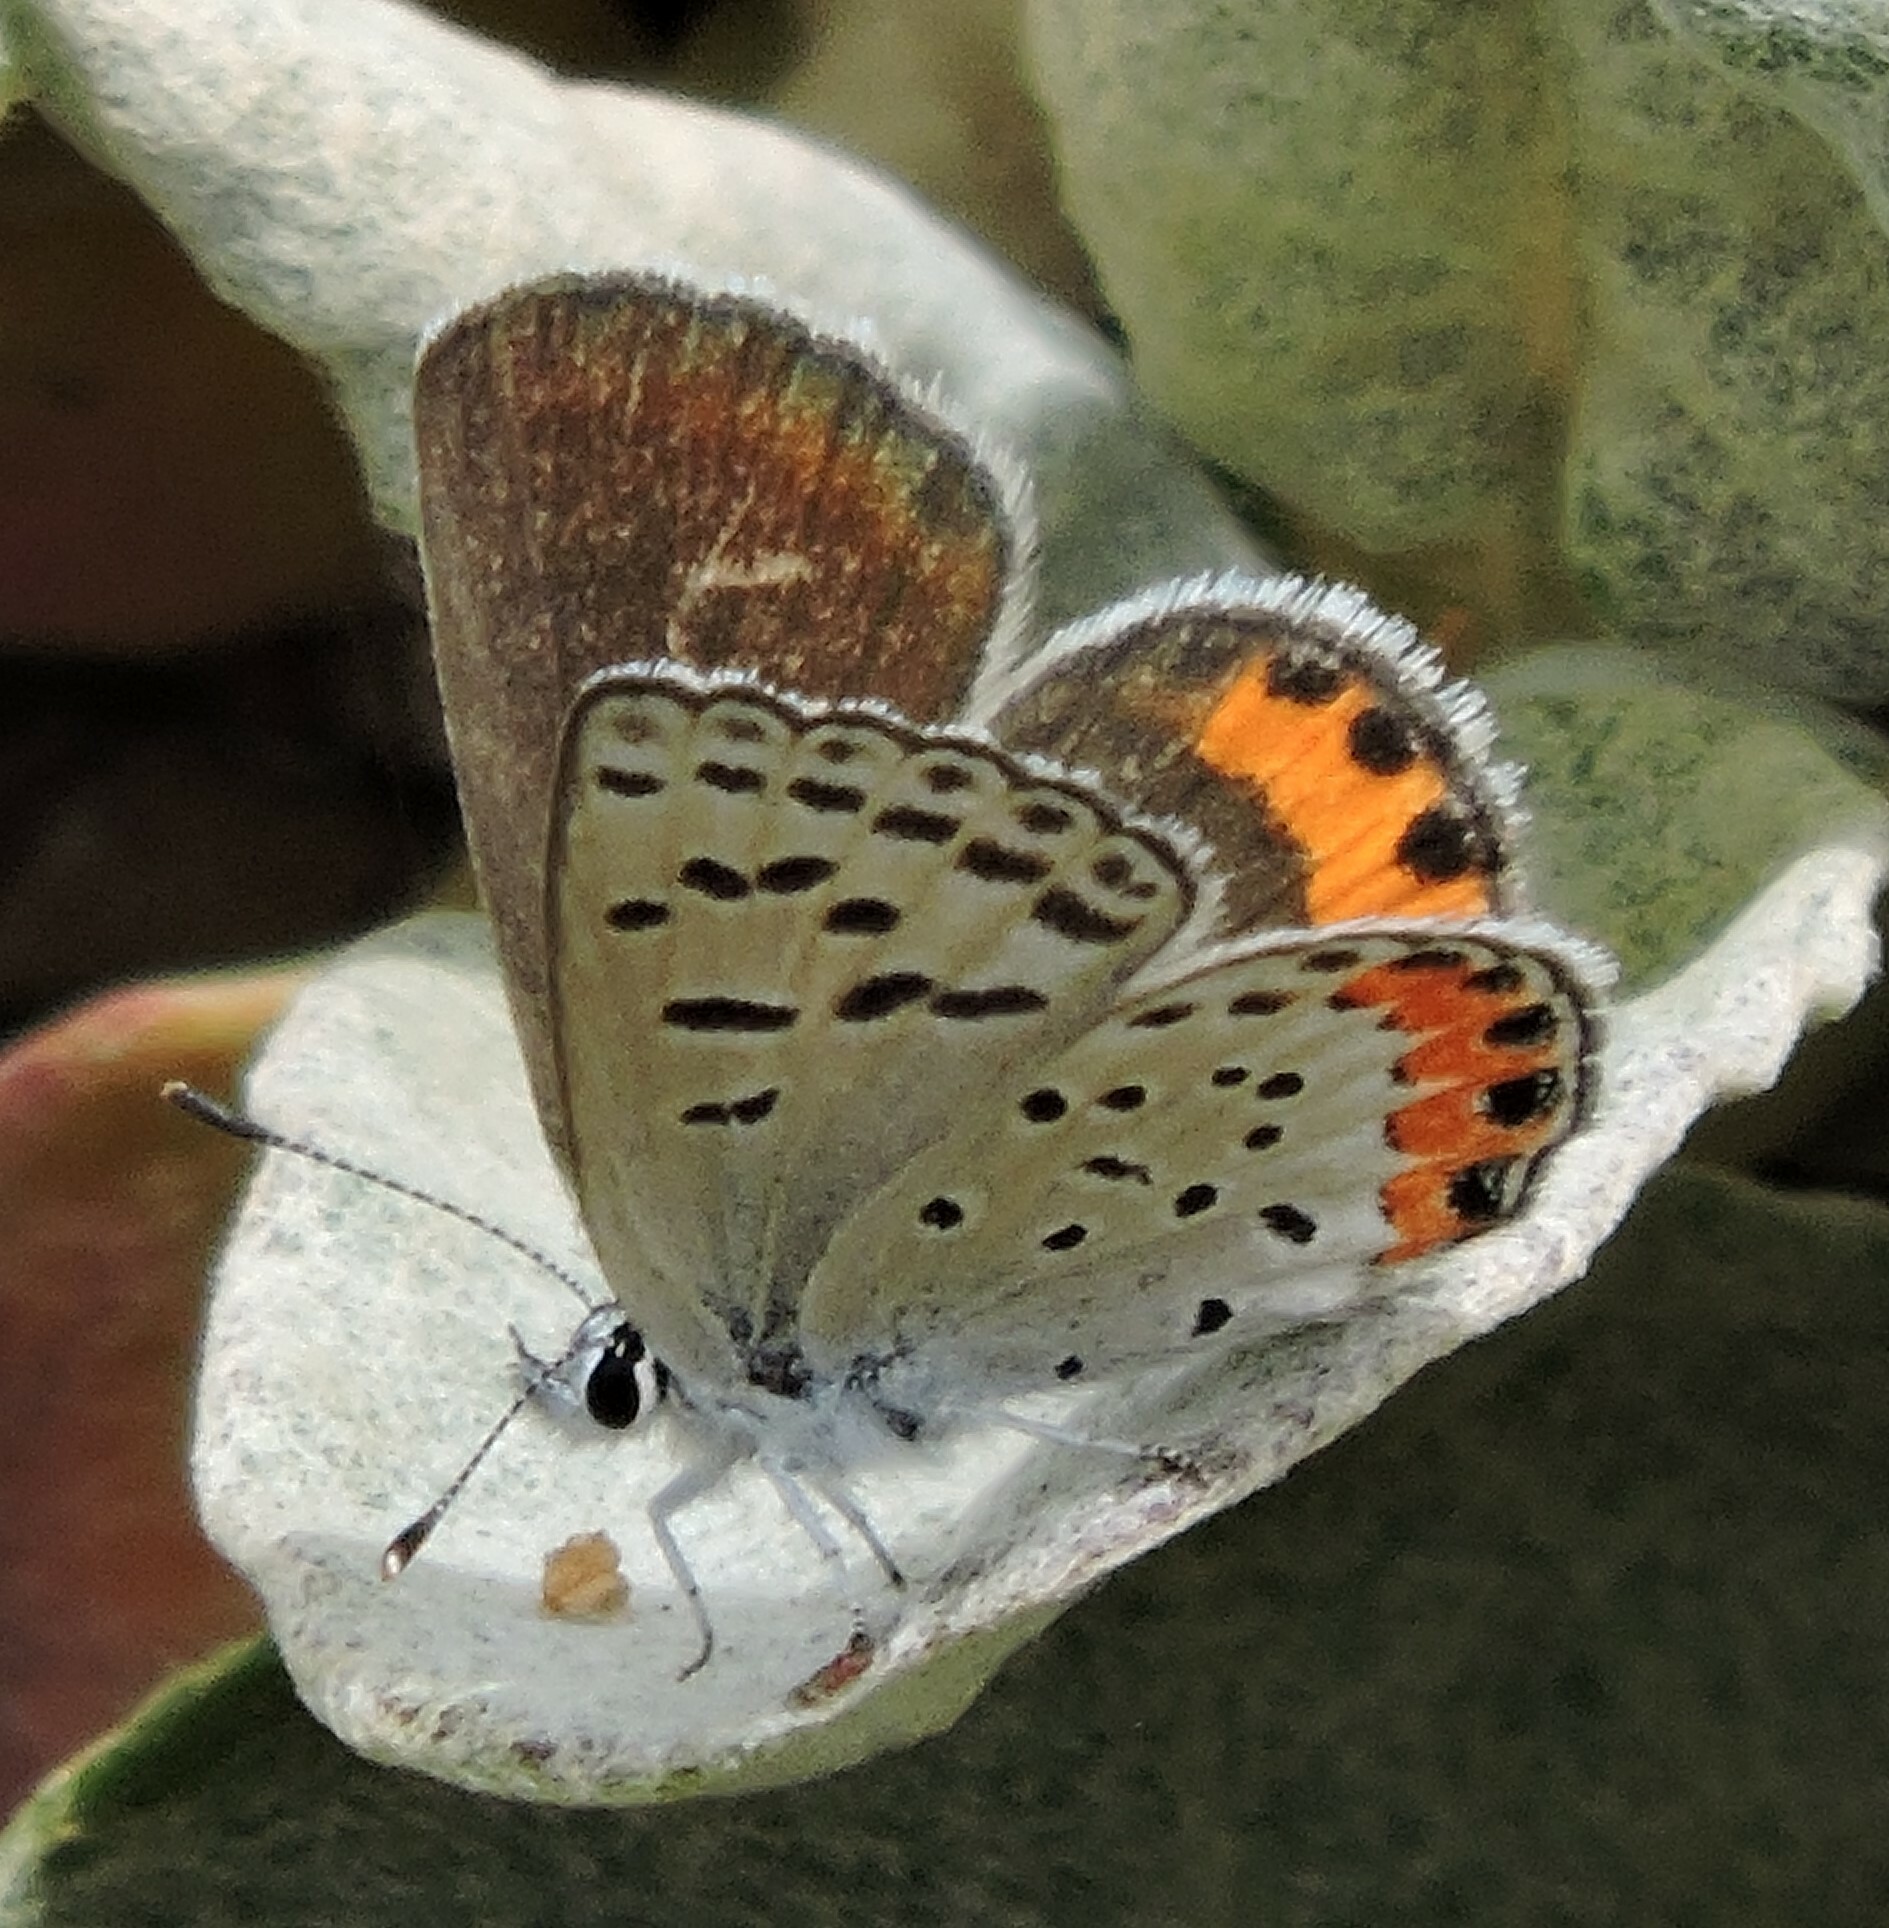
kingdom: Animalia
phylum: Arthropoda
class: Insecta
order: Lepidoptera
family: Lycaenidae
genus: Icaricia
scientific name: Icaricia acmon
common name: Acmon blue
